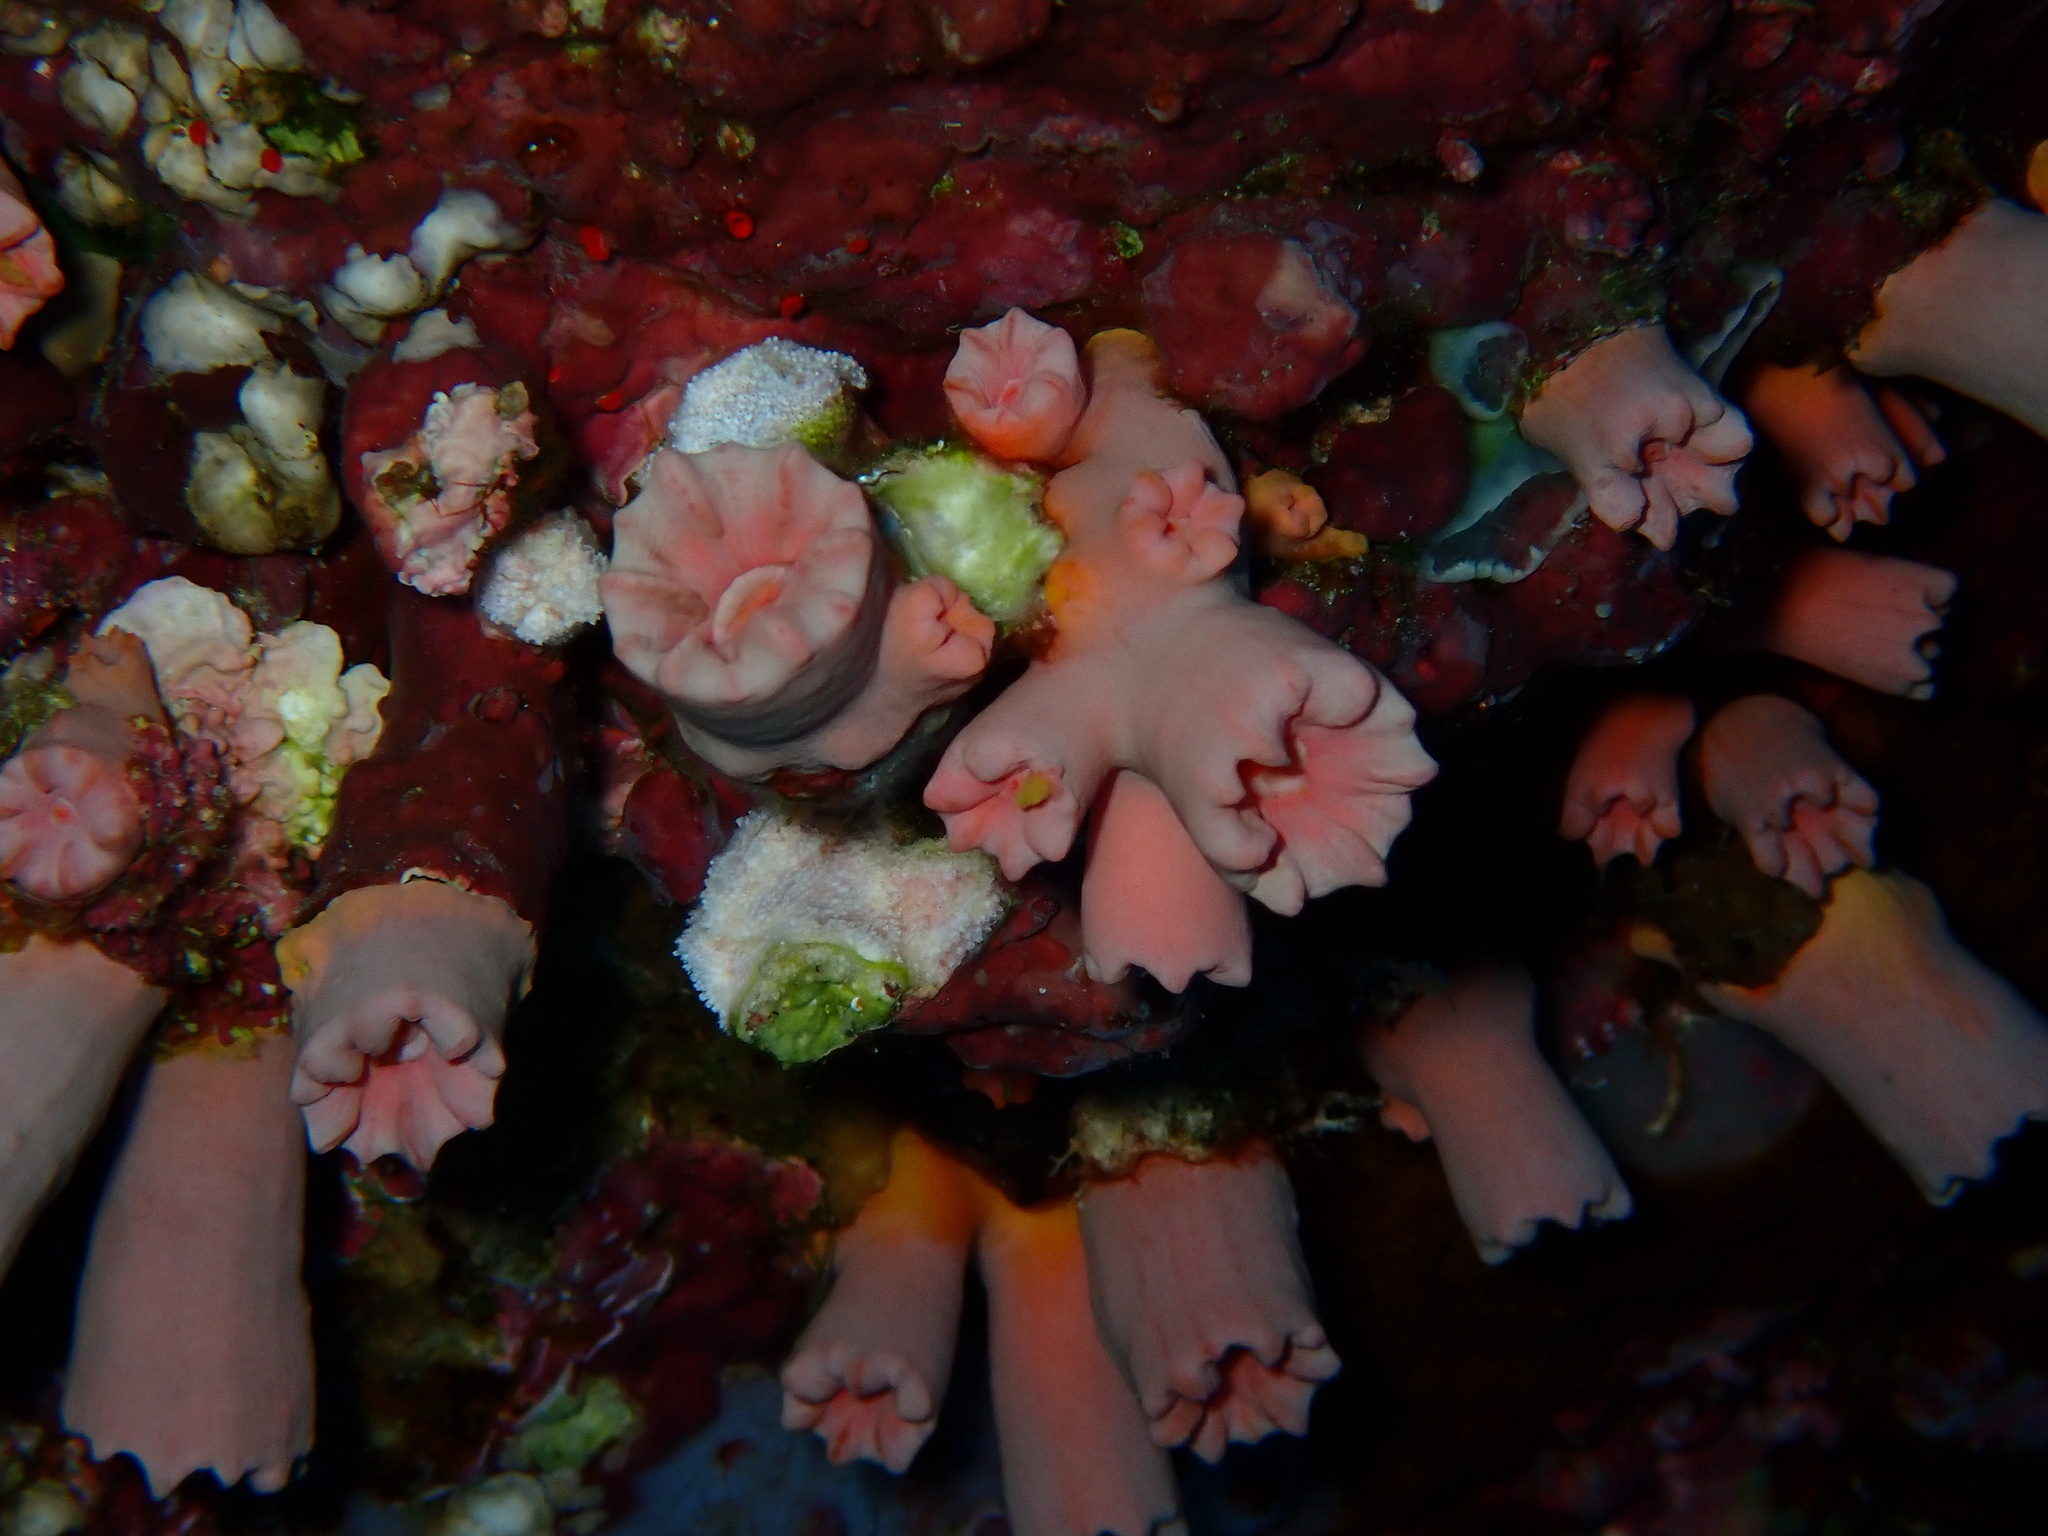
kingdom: Animalia
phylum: Cnidaria
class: Anthozoa
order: Scleractinia
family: Dendrophylliidae
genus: Cladopsammia
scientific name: Cladopsammia gracilis
